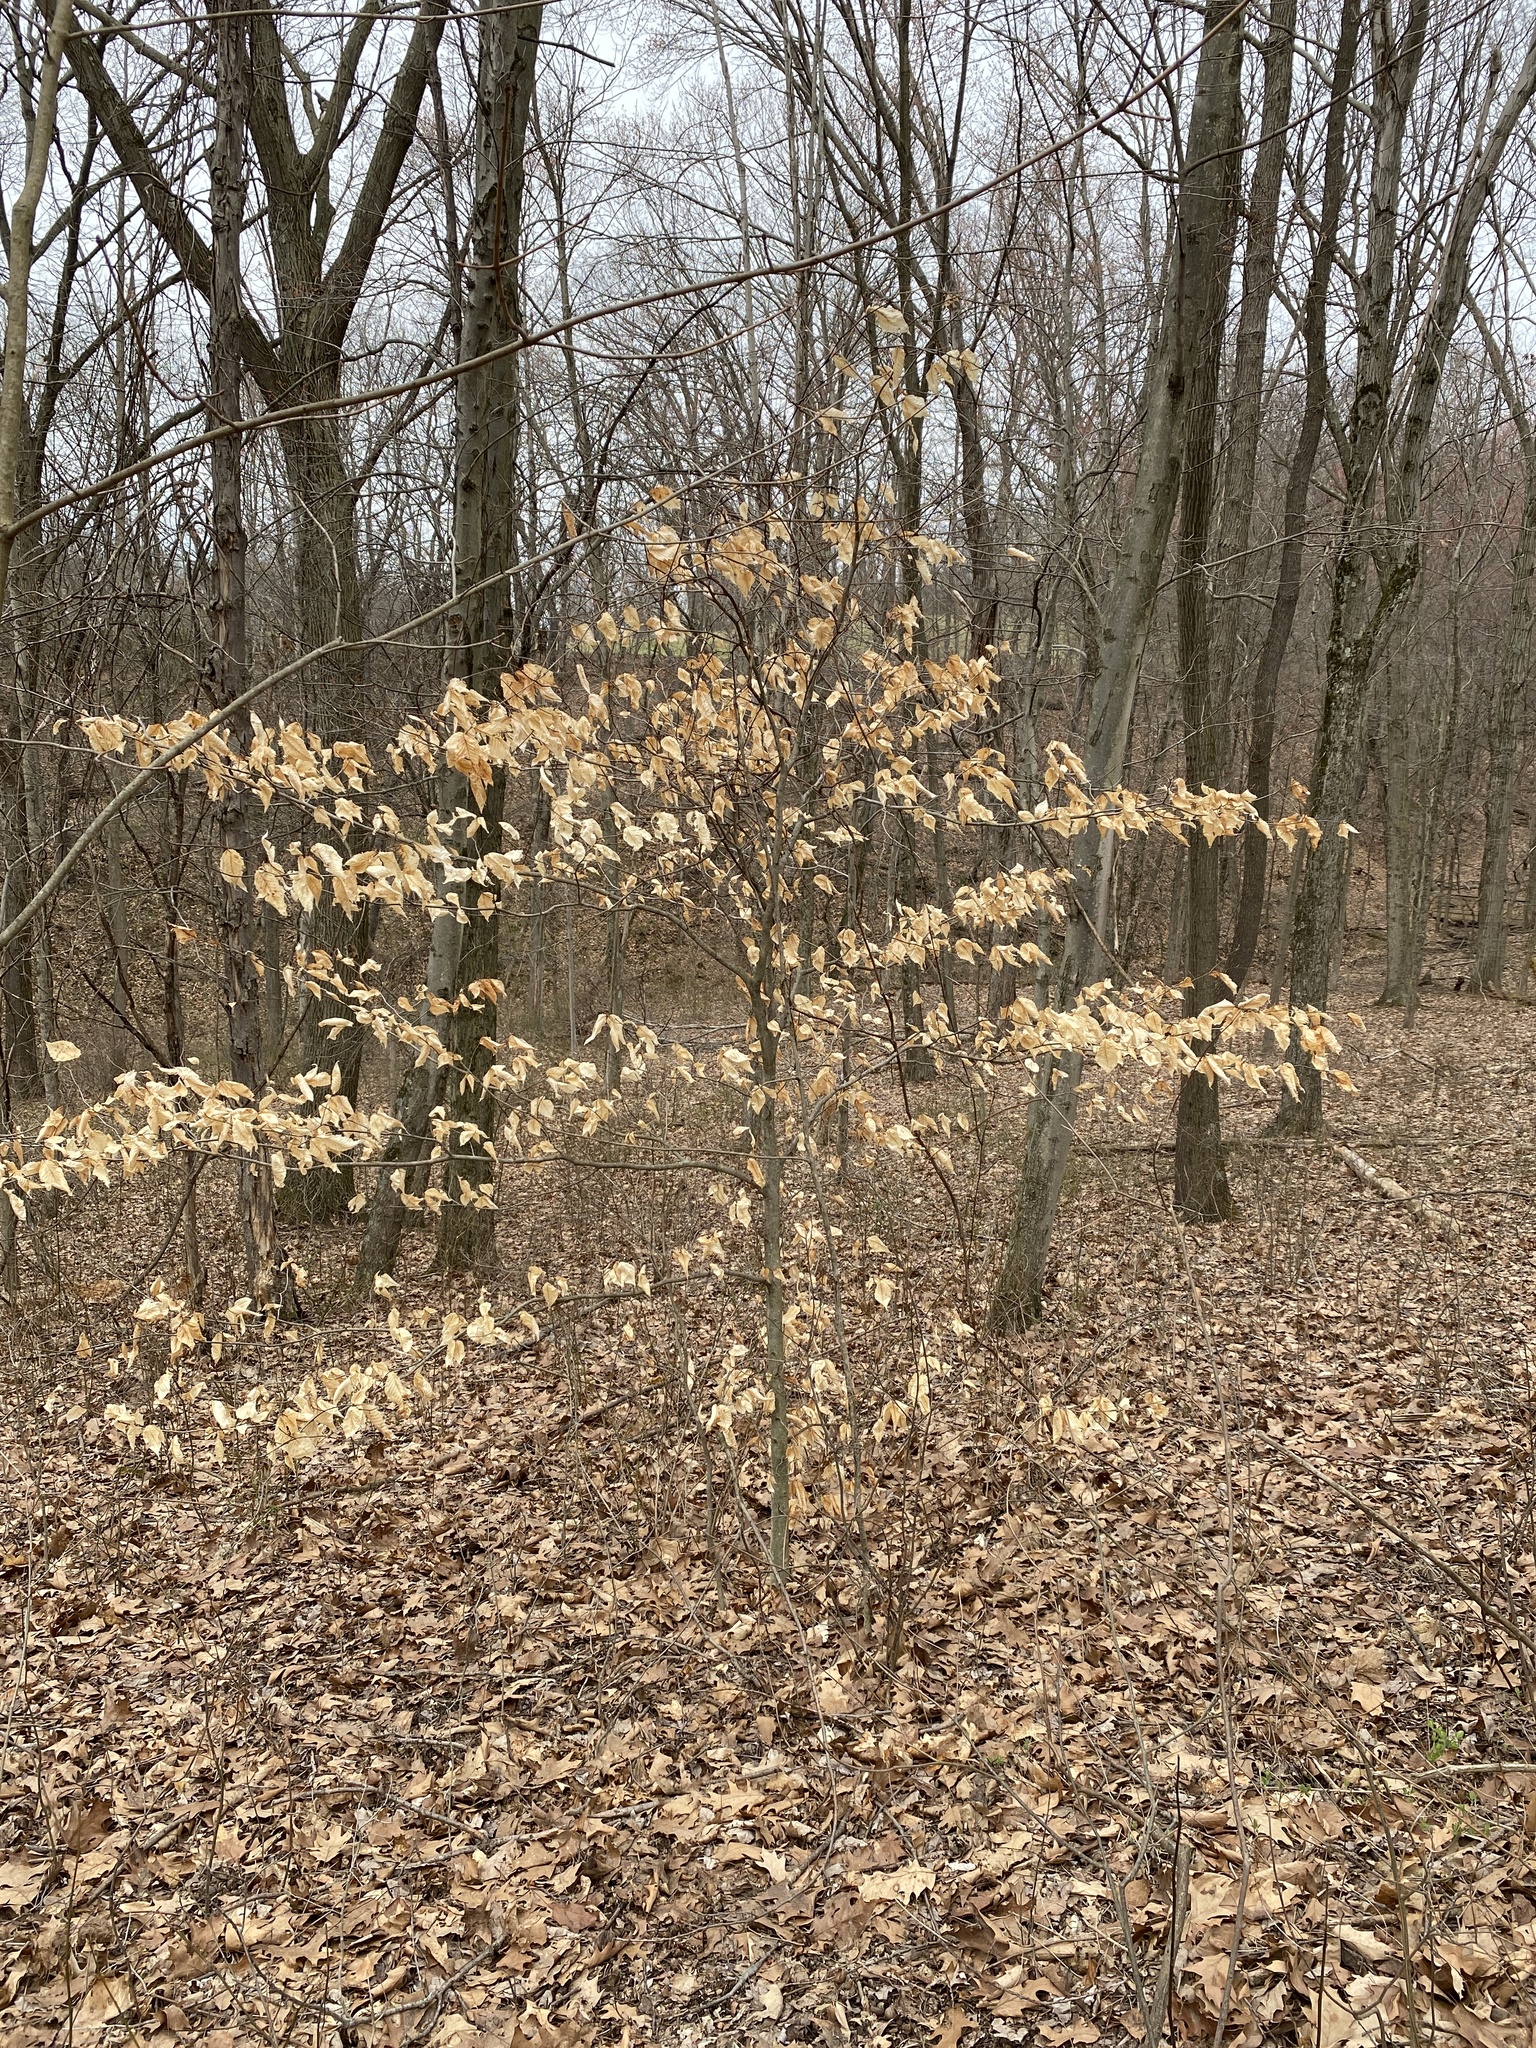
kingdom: Plantae
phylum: Tracheophyta
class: Magnoliopsida
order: Fagales
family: Fagaceae
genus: Fagus
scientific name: Fagus grandifolia
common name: American beech
